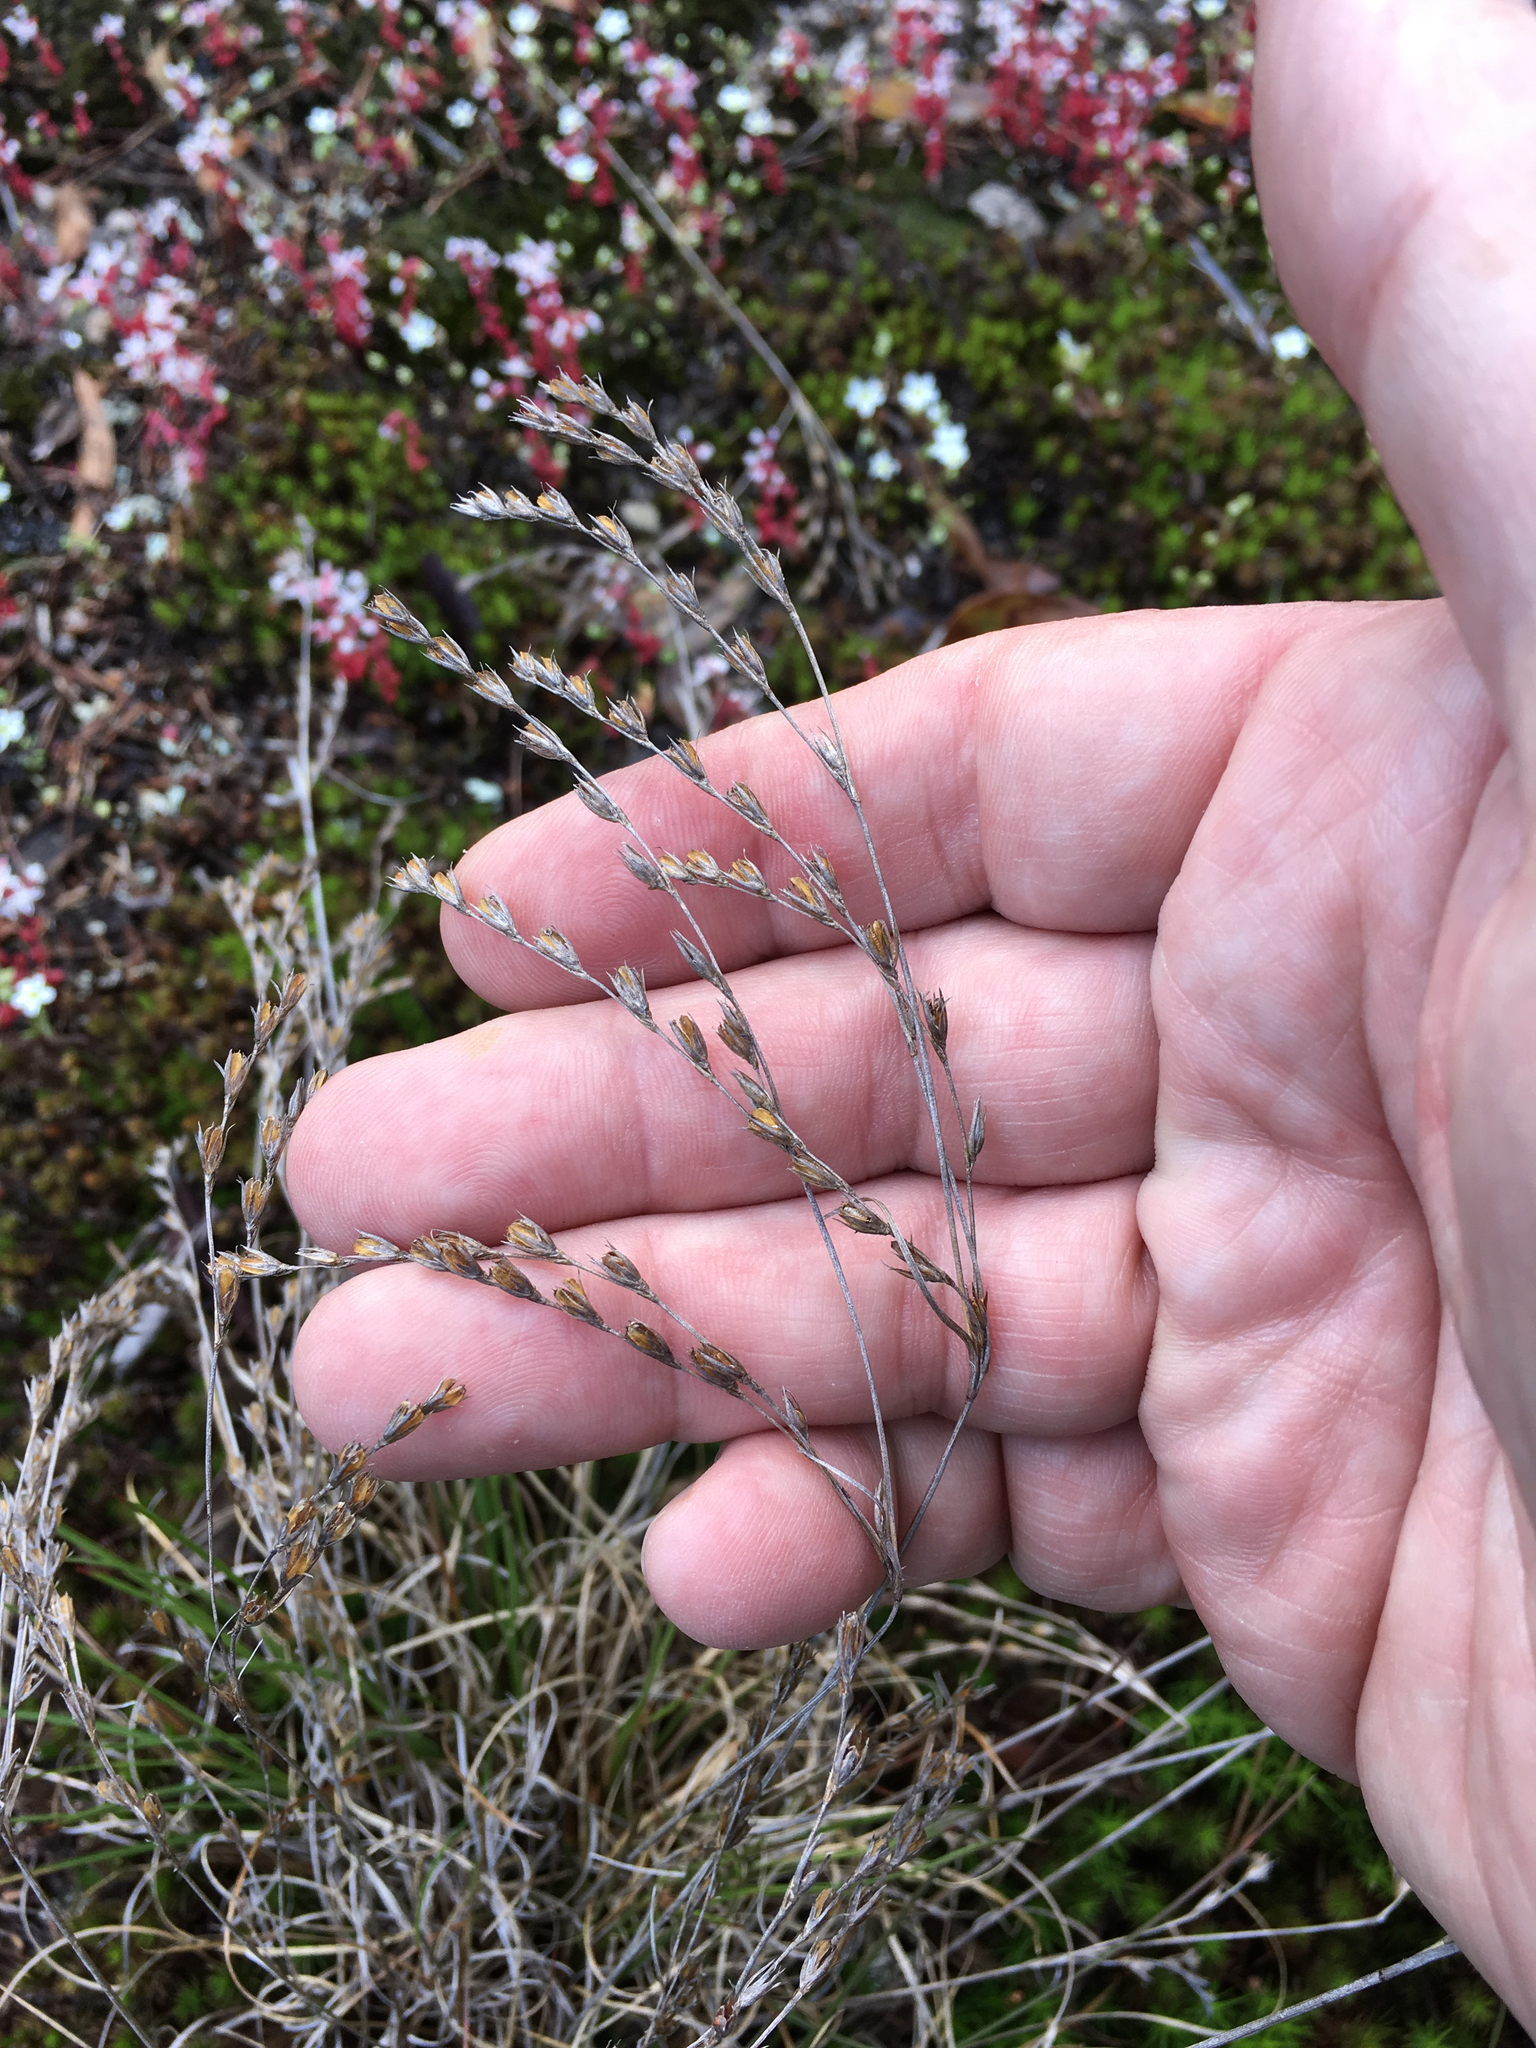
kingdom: Plantae
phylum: Tracheophyta
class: Liliopsida
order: Poales
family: Juncaceae
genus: Juncus
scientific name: Juncus georgianus
